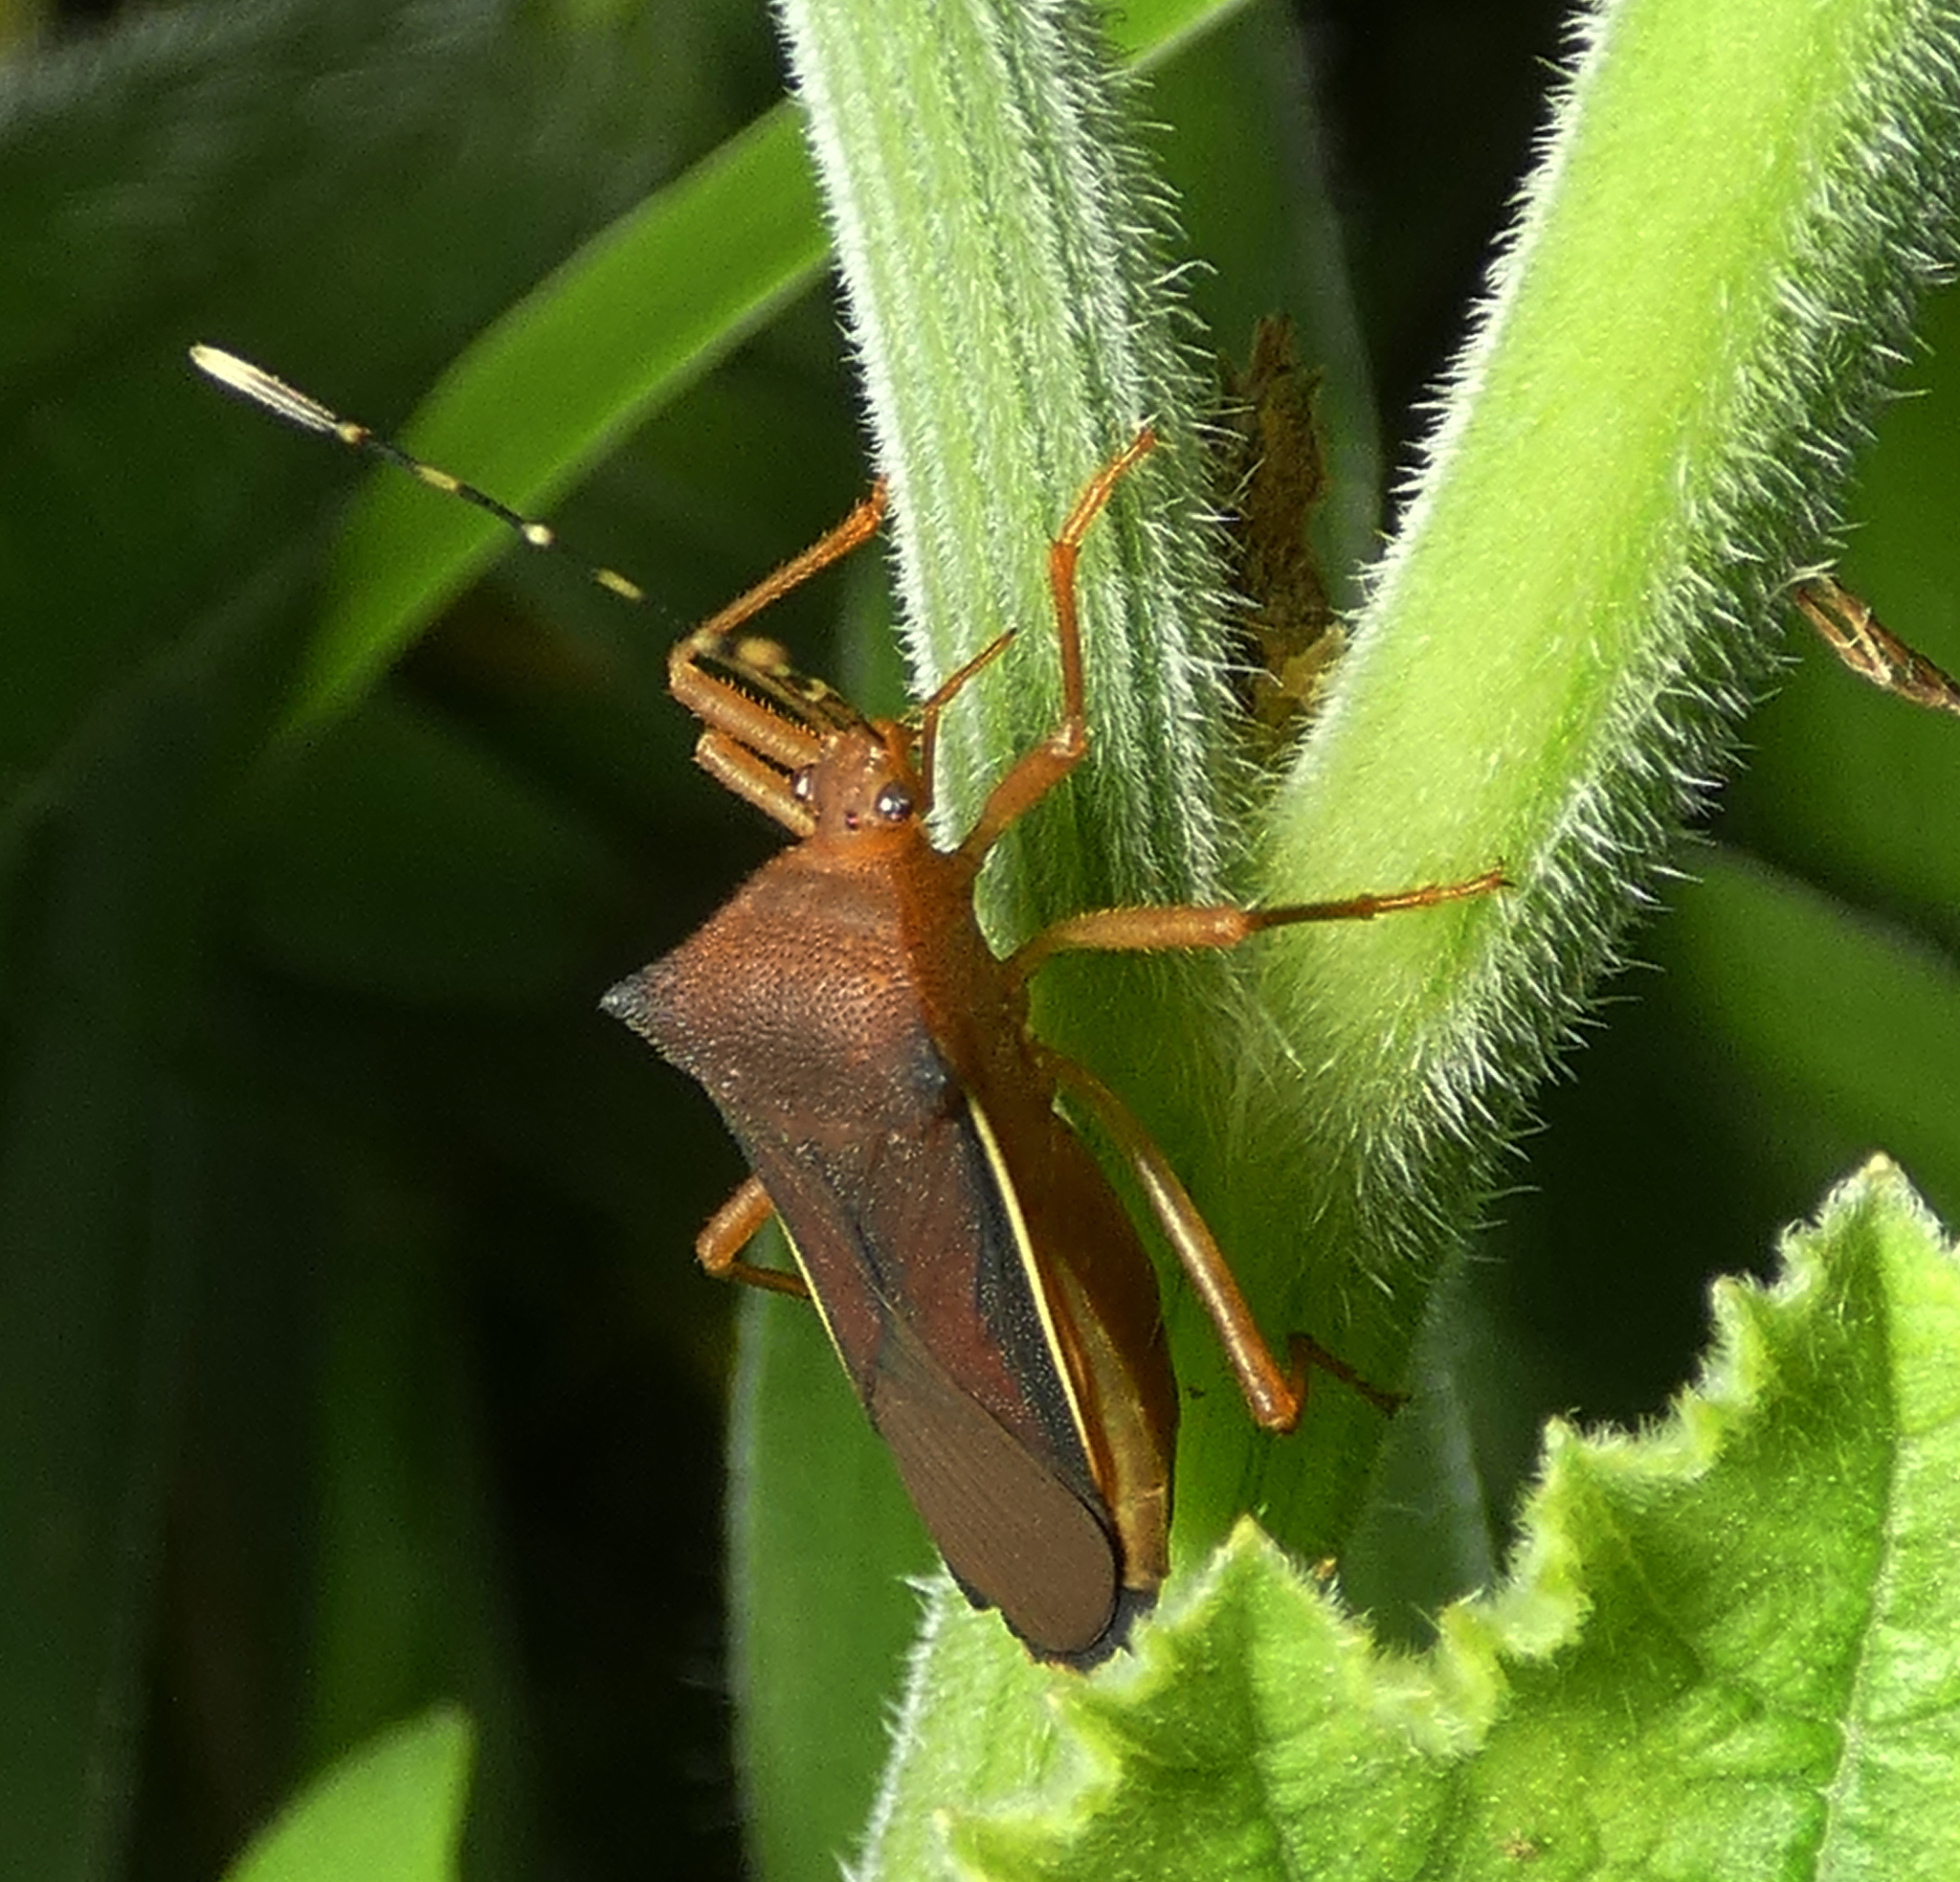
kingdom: Animalia
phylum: Arthropoda
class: Insecta
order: Hemiptera
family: Coreidae
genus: Anasa
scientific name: Anasa varicornis
